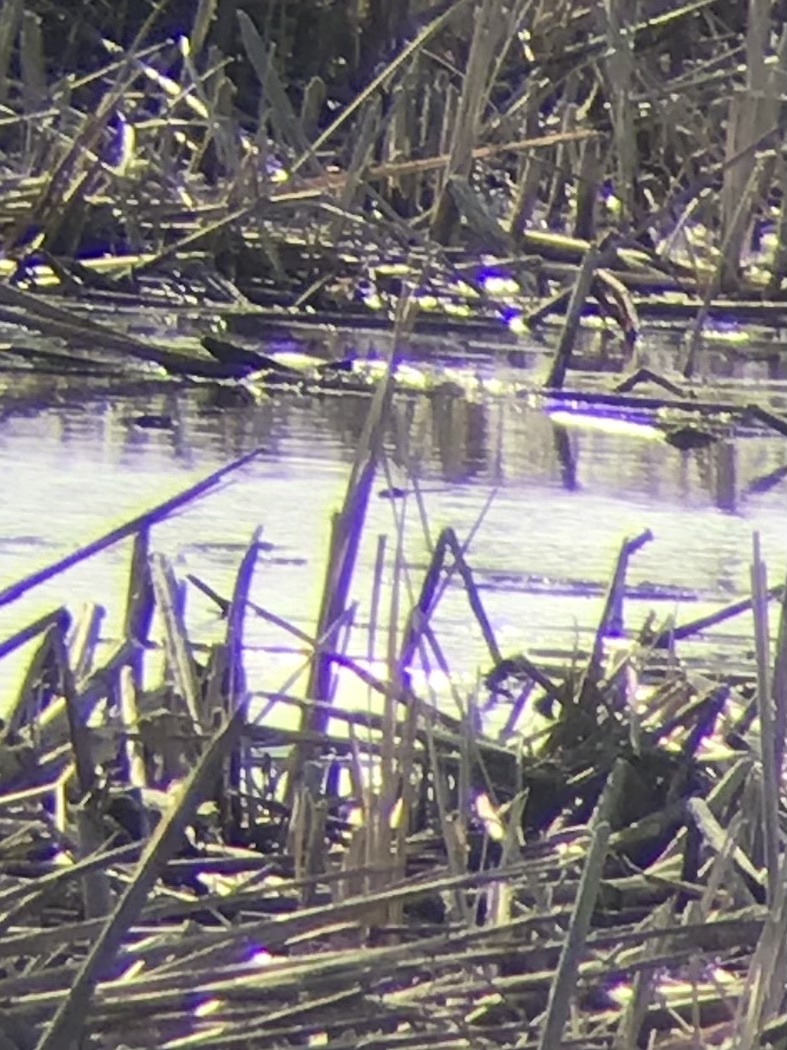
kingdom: Animalia
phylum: Arthropoda
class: Insecta
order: Odonata
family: Aeshnidae
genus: Anax
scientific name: Anax junius
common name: Common green darner
